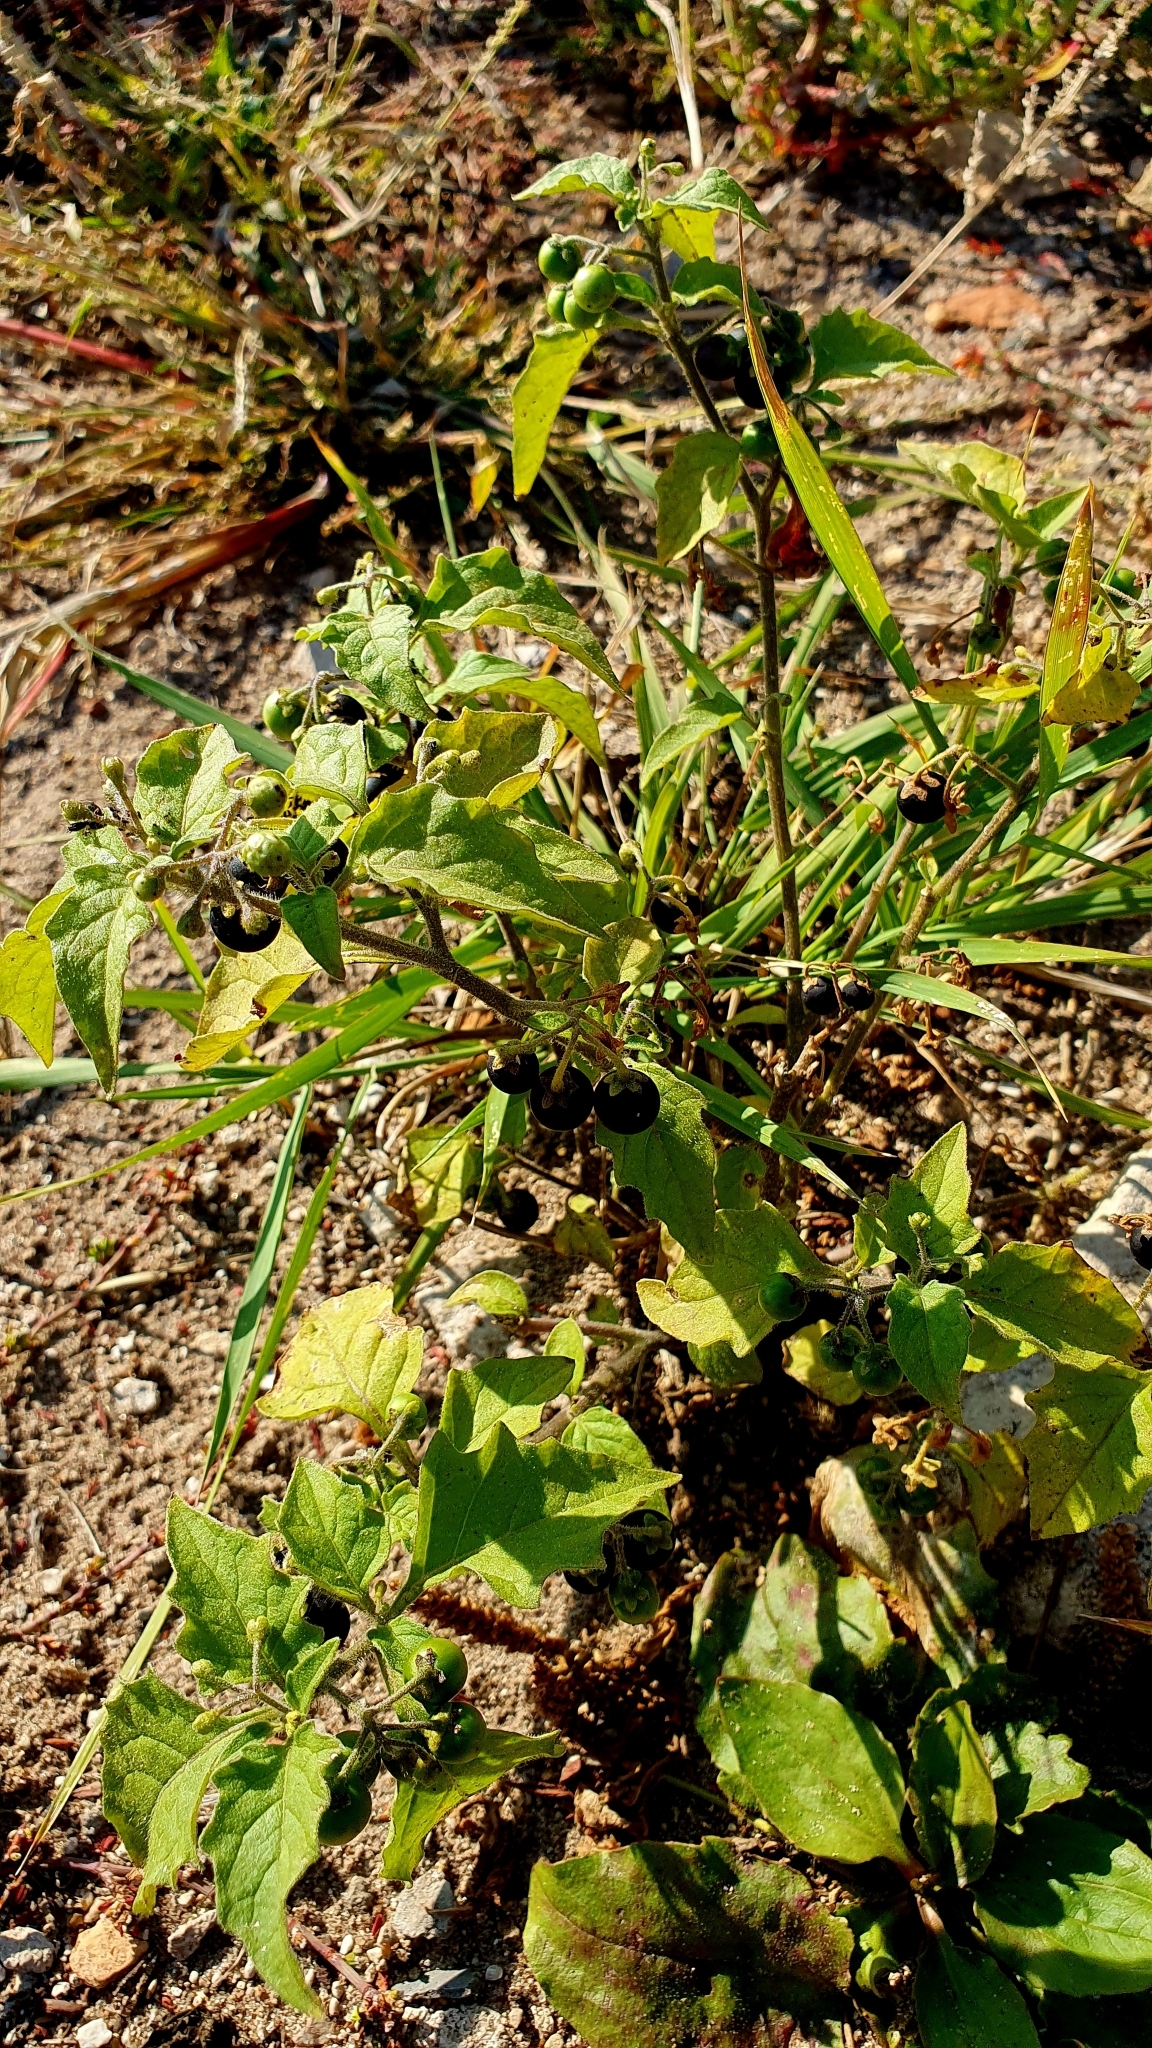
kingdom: Plantae
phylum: Tracheophyta
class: Magnoliopsida
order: Solanales
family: Solanaceae
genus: Solanum
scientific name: Solanum nigrum
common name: Black nightshade
